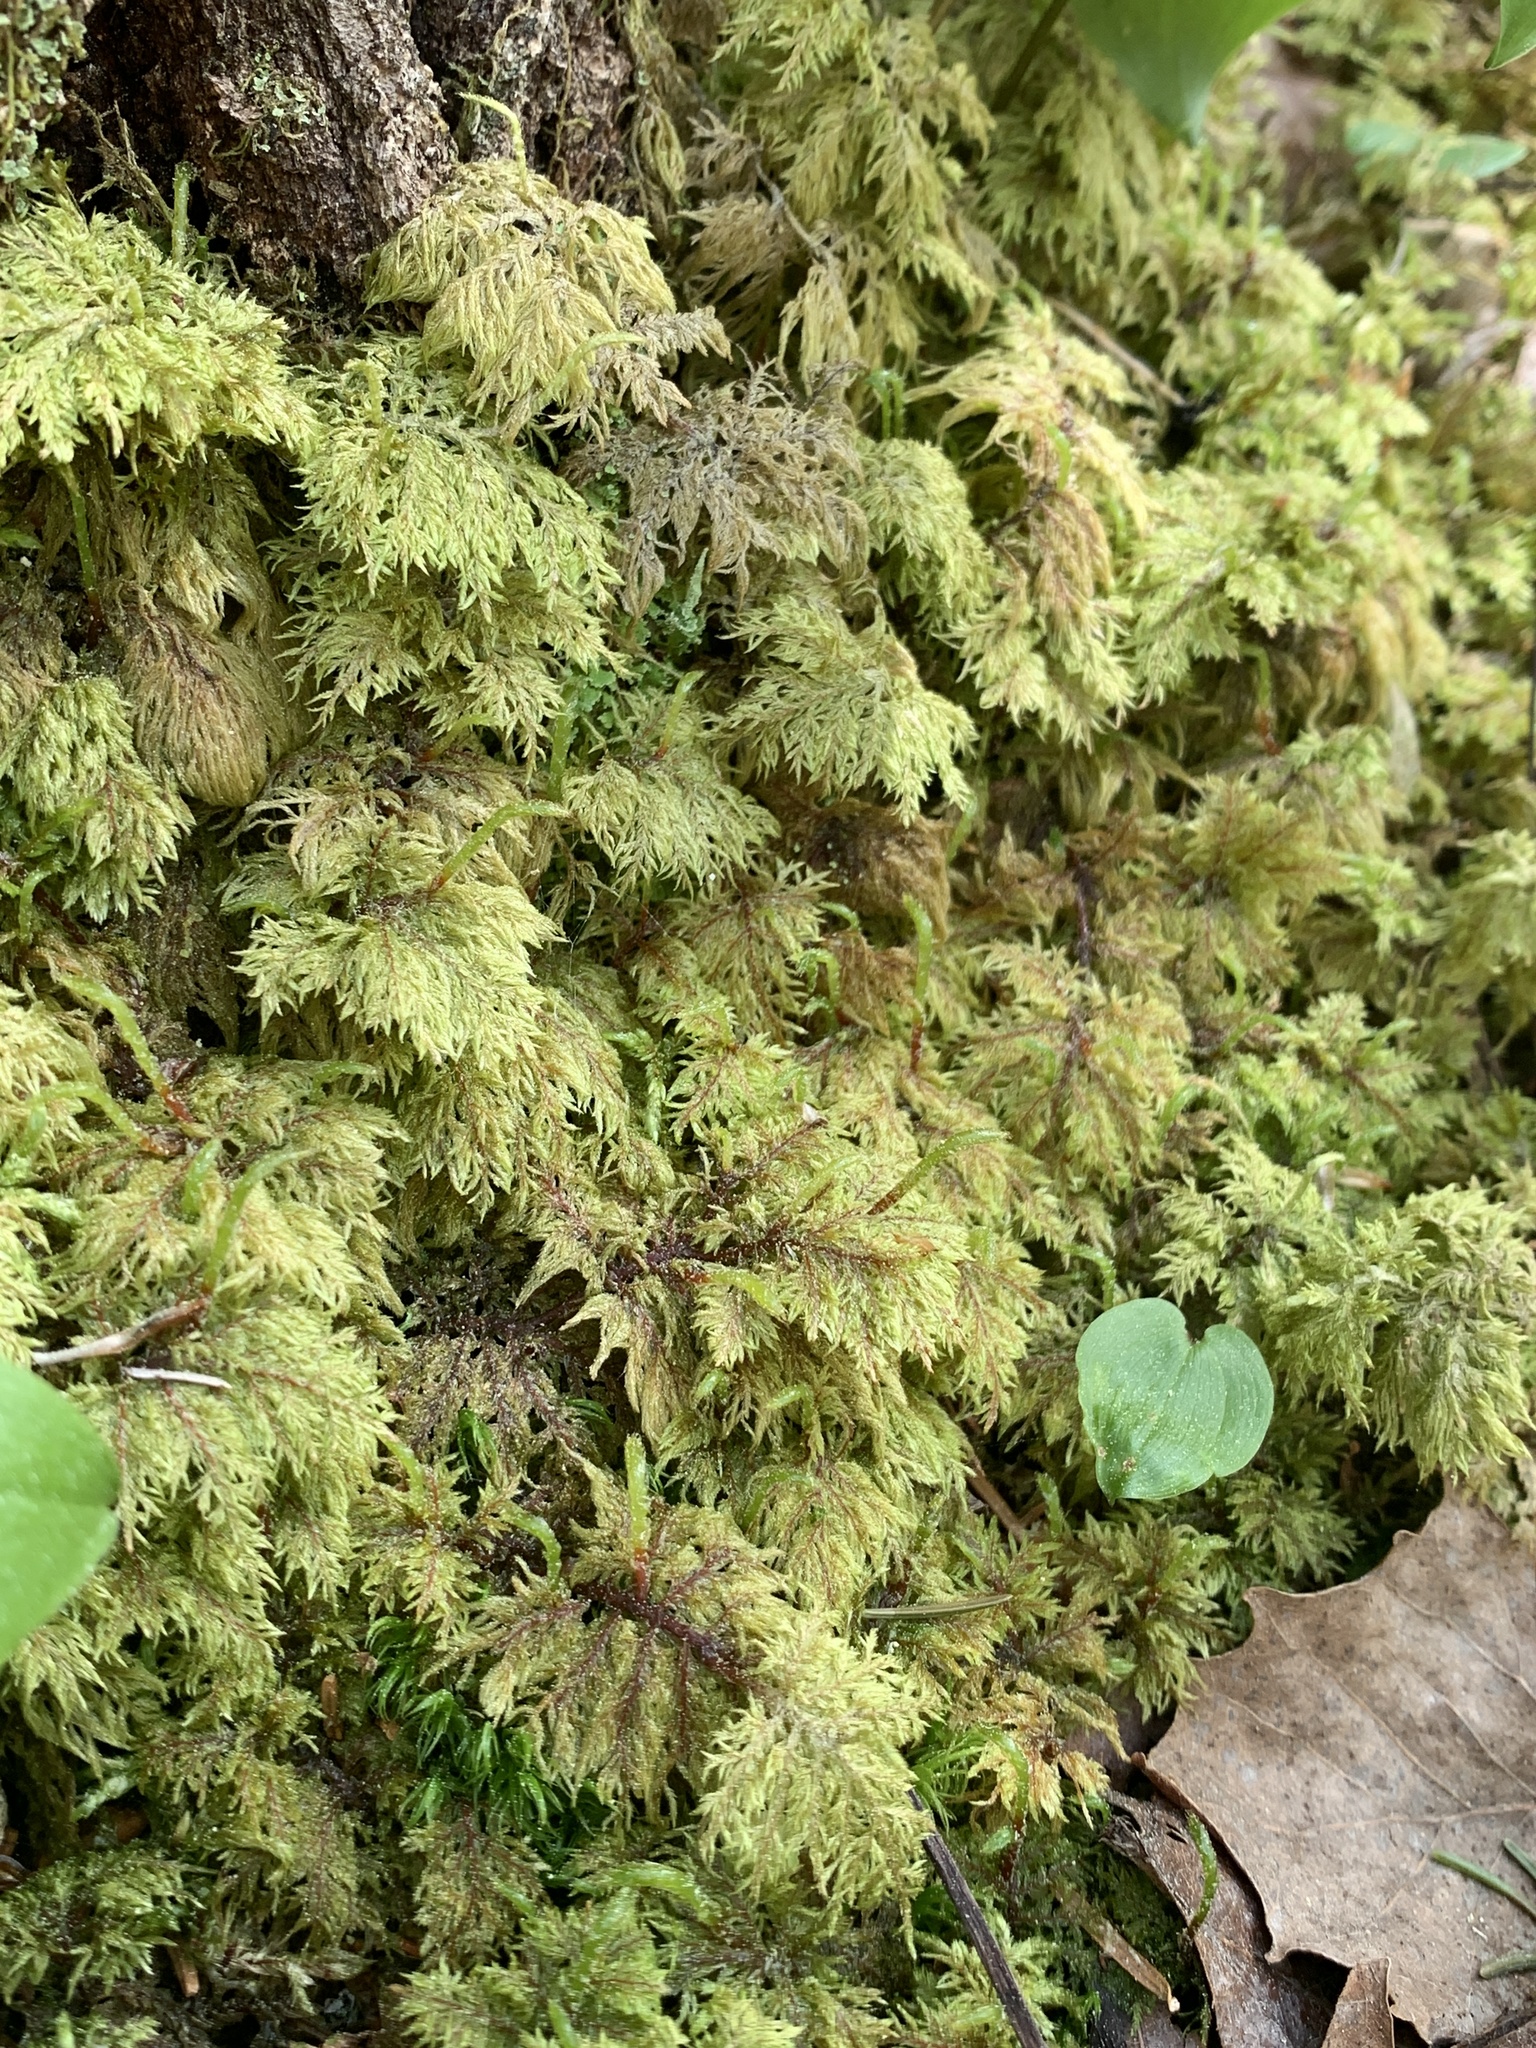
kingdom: Plantae
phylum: Bryophyta
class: Bryopsida
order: Hypnales
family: Hylocomiaceae
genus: Hylocomium
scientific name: Hylocomium splendens
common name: Stairstep moss
